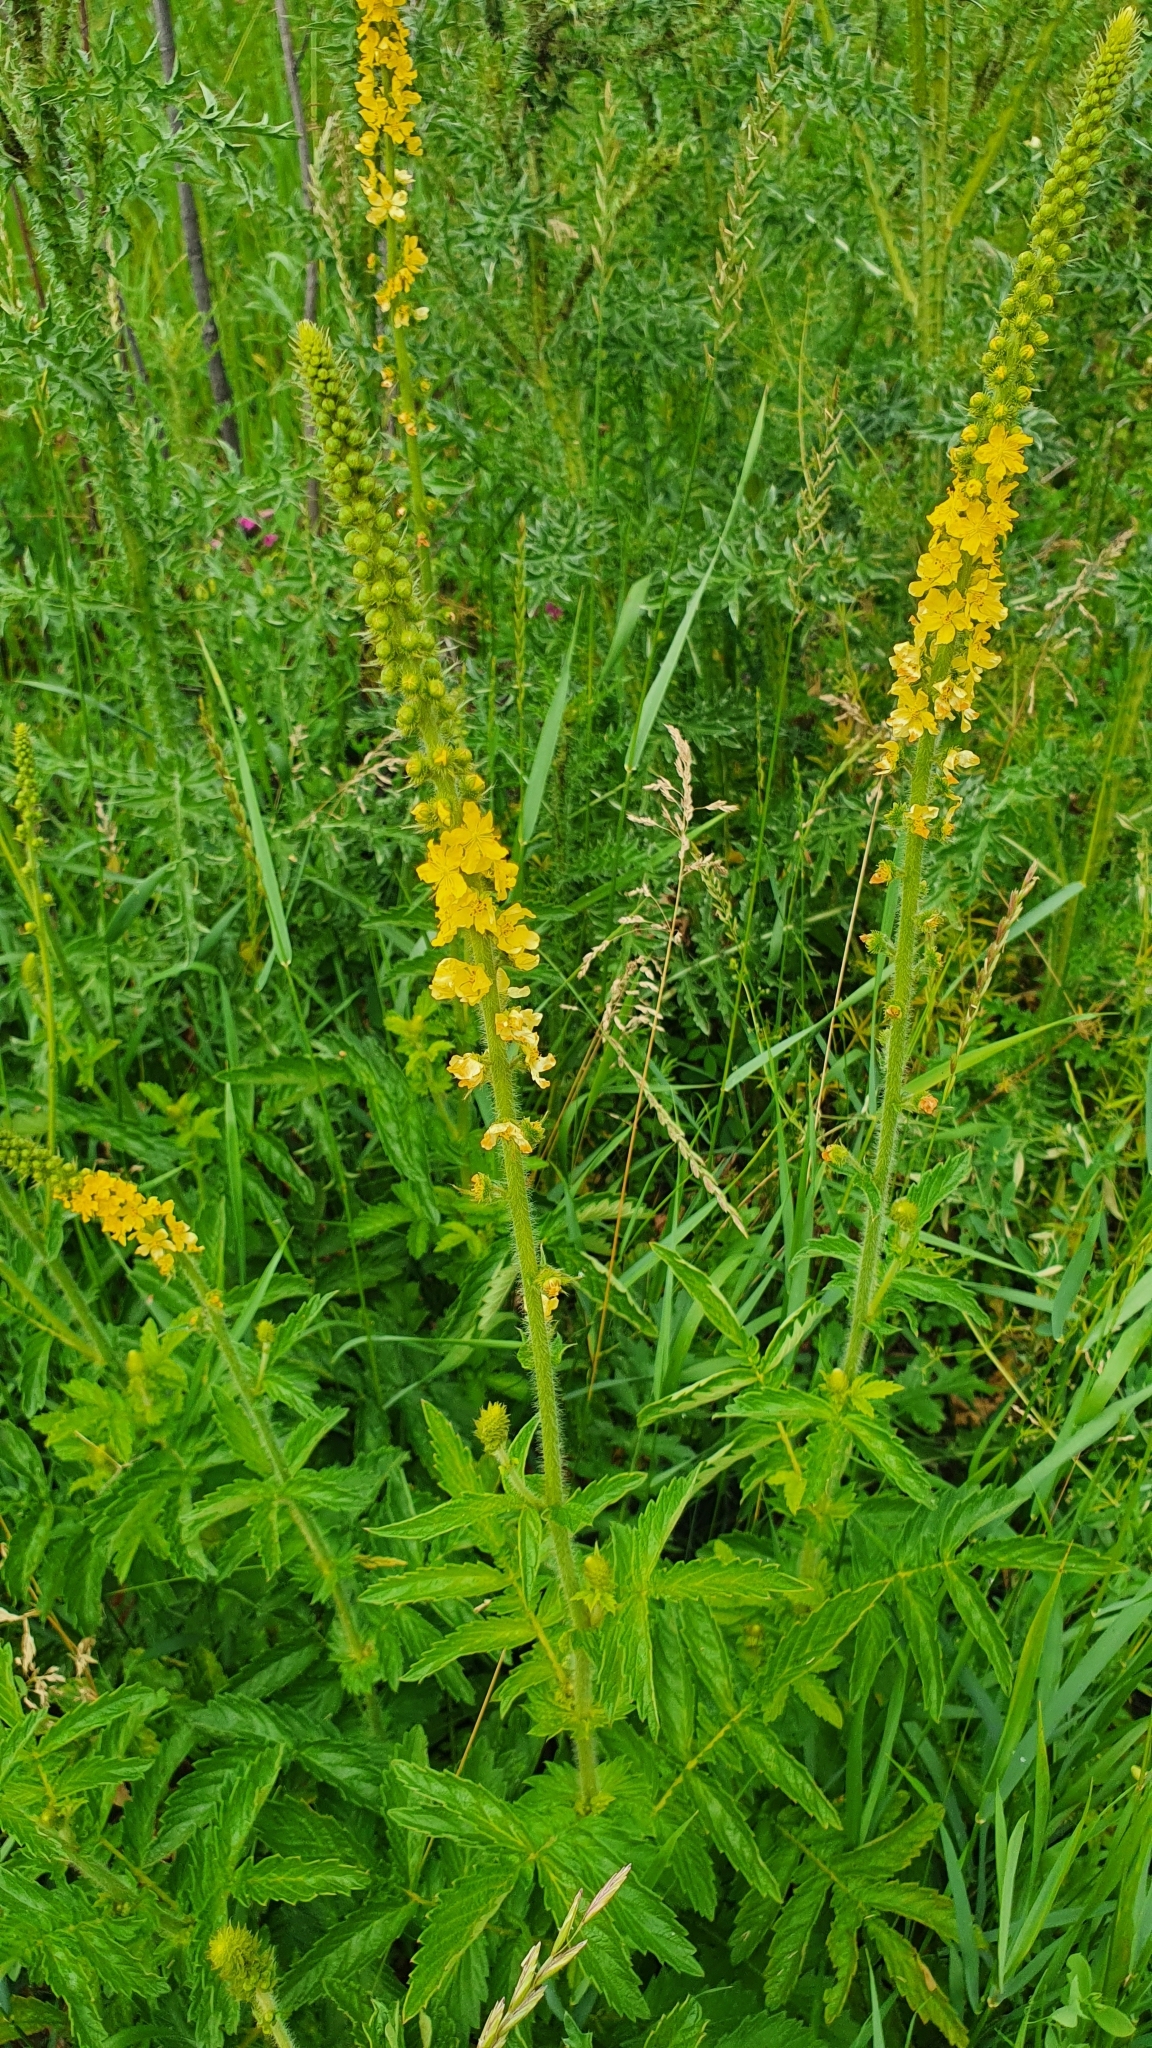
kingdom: Plantae
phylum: Tracheophyta
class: Magnoliopsida
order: Rosales
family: Rosaceae
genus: Agrimonia
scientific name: Agrimonia eupatoria
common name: Agrimony
